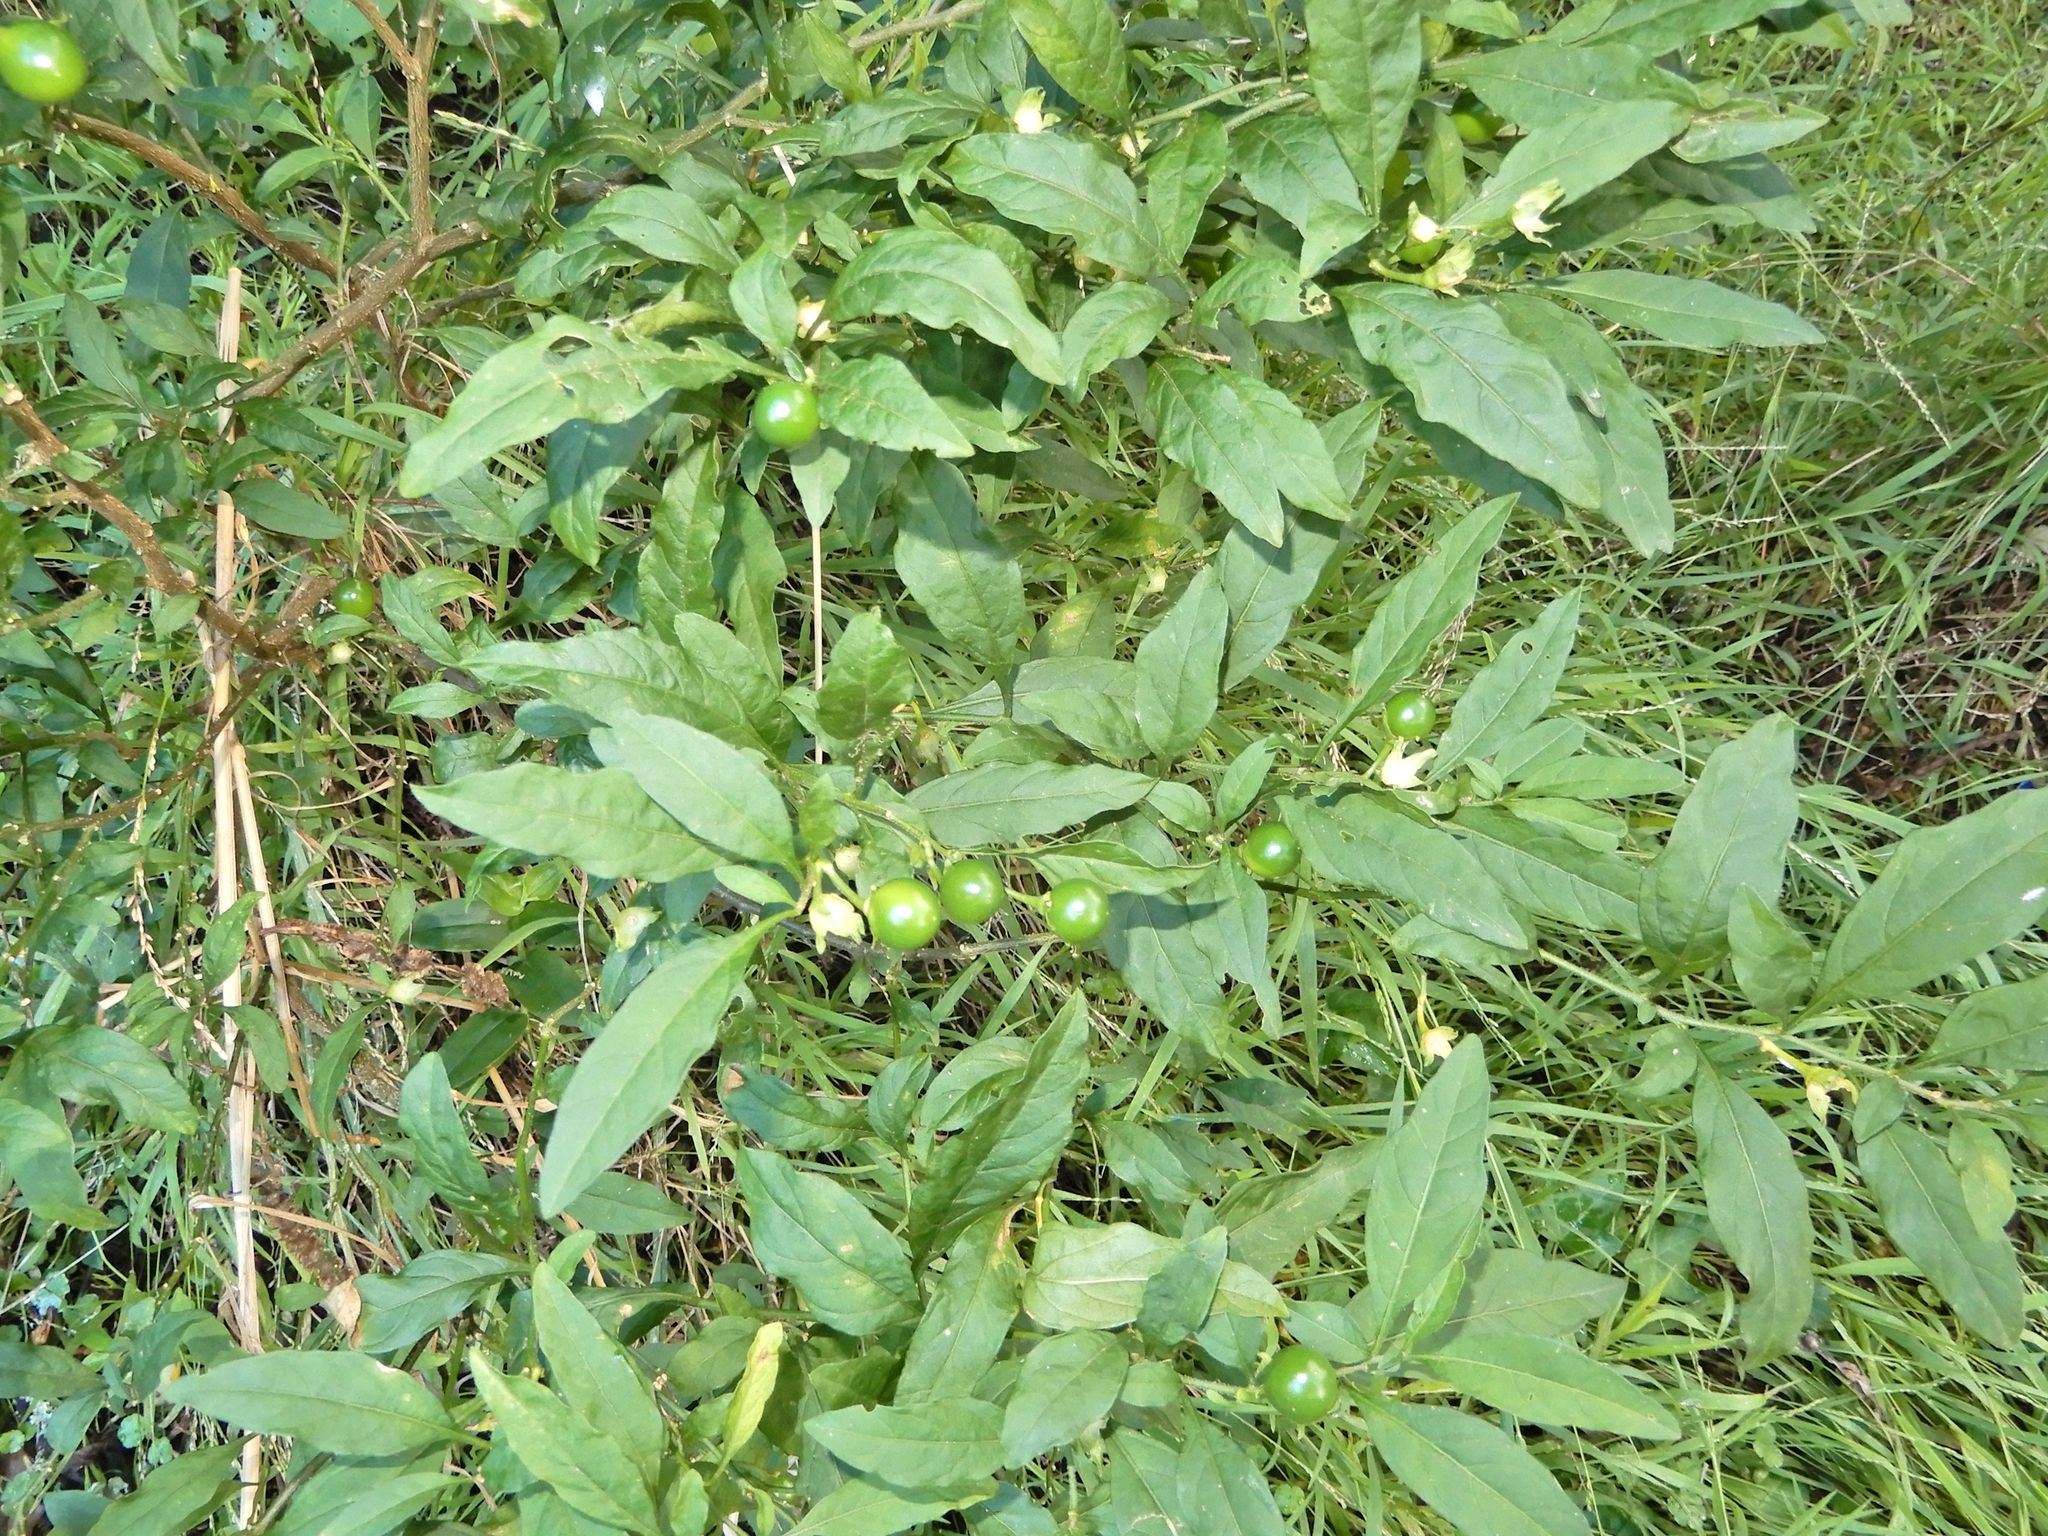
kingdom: Plantae
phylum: Tracheophyta
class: Magnoliopsida
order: Solanales
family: Solanaceae
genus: Solanum
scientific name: Solanum pseudocapsicum
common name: Jerusalem cherry
